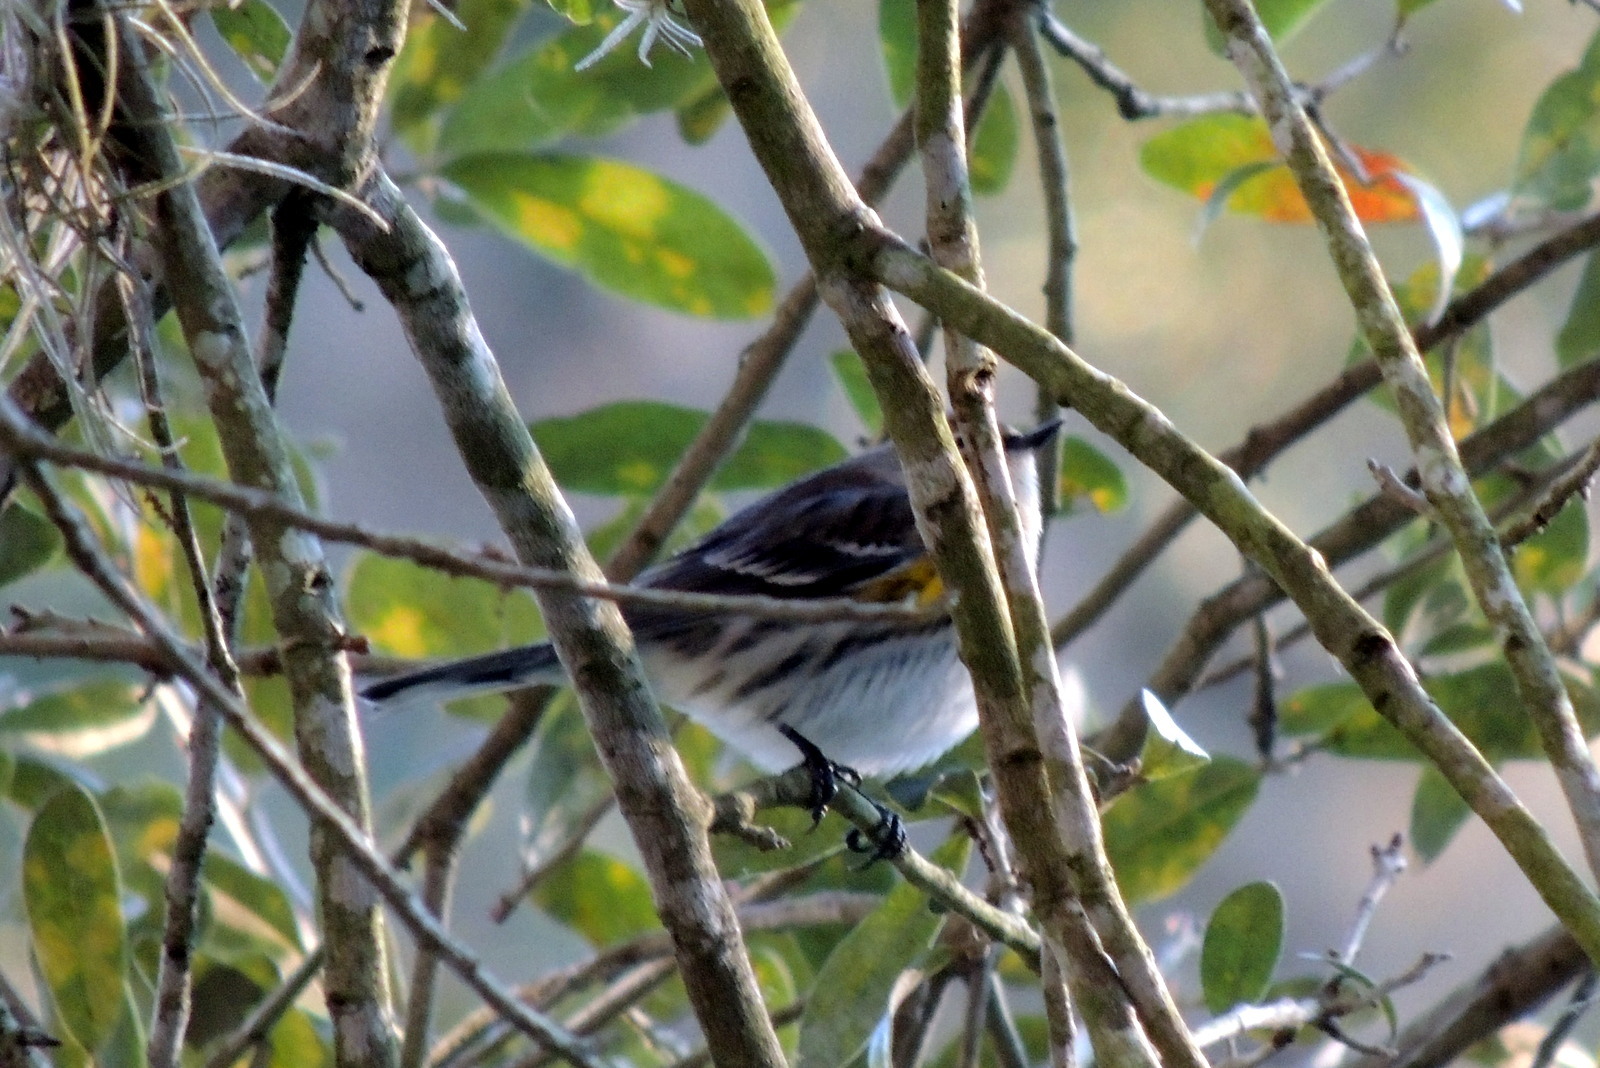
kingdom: Animalia
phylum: Chordata
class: Aves
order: Passeriformes
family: Parulidae
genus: Setophaga
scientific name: Setophaga coronata
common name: Myrtle warbler
